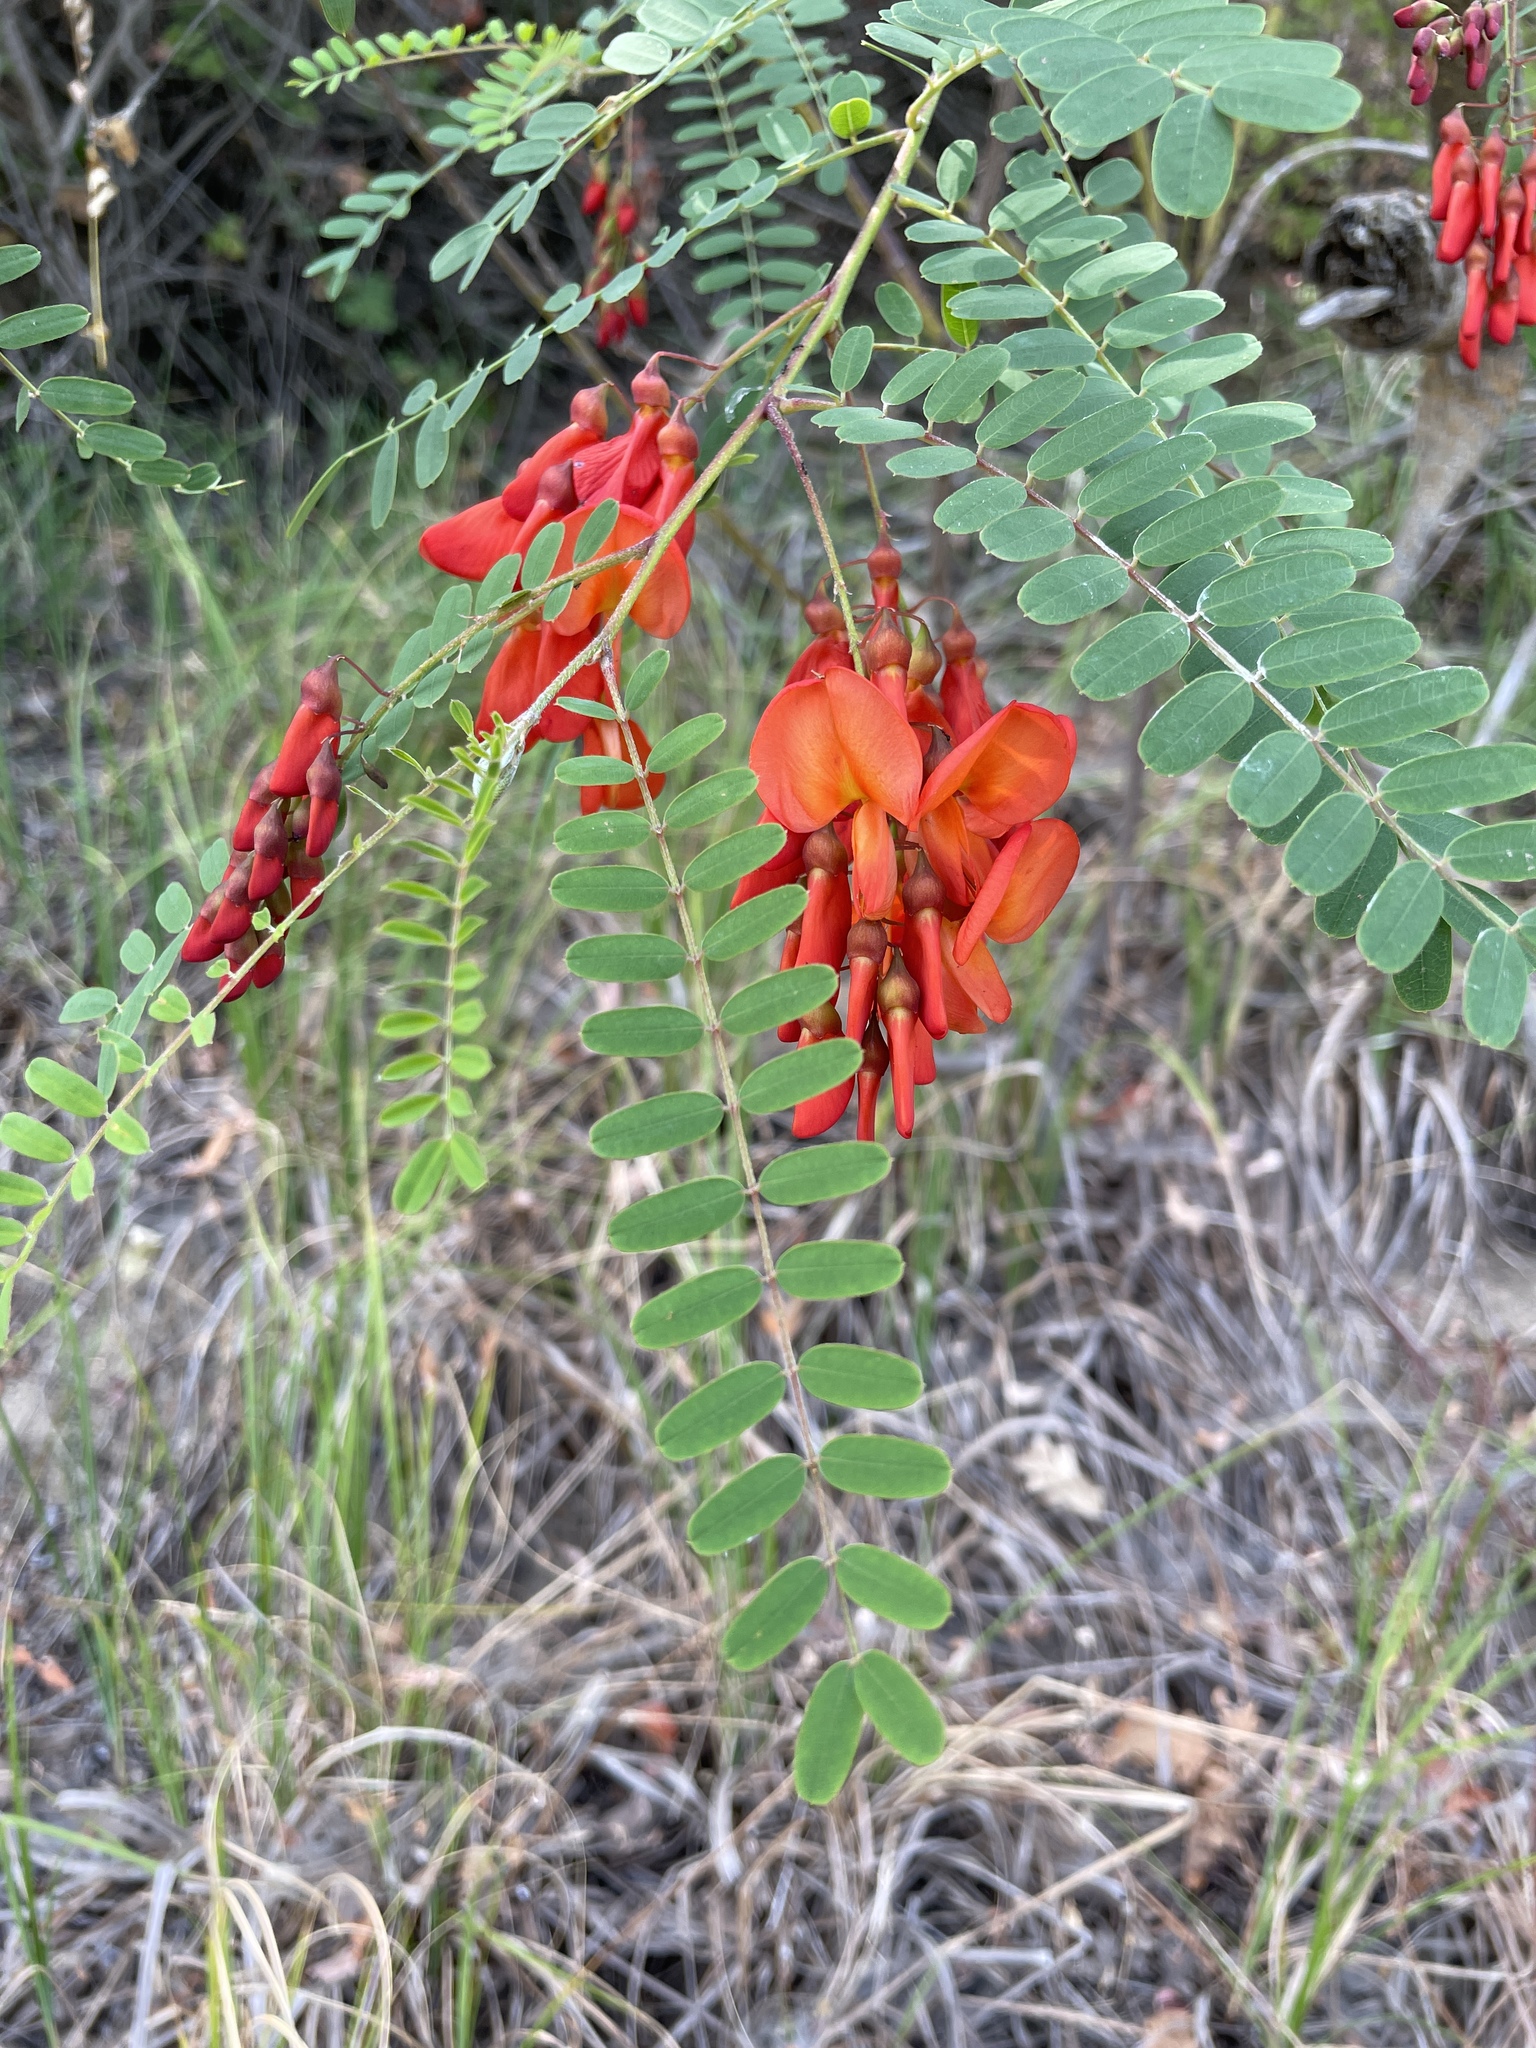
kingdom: Plantae
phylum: Tracheophyta
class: Magnoliopsida
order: Fabales
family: Fabaceae
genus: Sesbania
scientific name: Sesbania punicea
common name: Rattlebox
